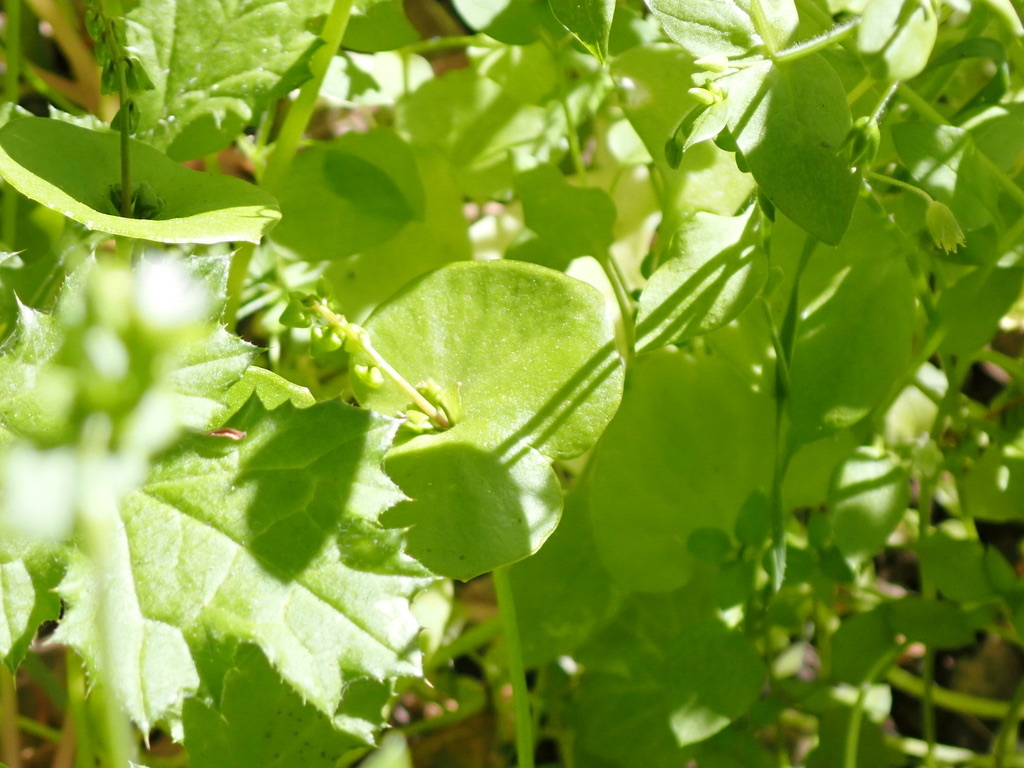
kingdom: Plantae
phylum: Tracheophyta
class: Magnoliopsida
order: Caryophyllales
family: Montiaceae
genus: Claytonia
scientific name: Claytonia perfoliata
